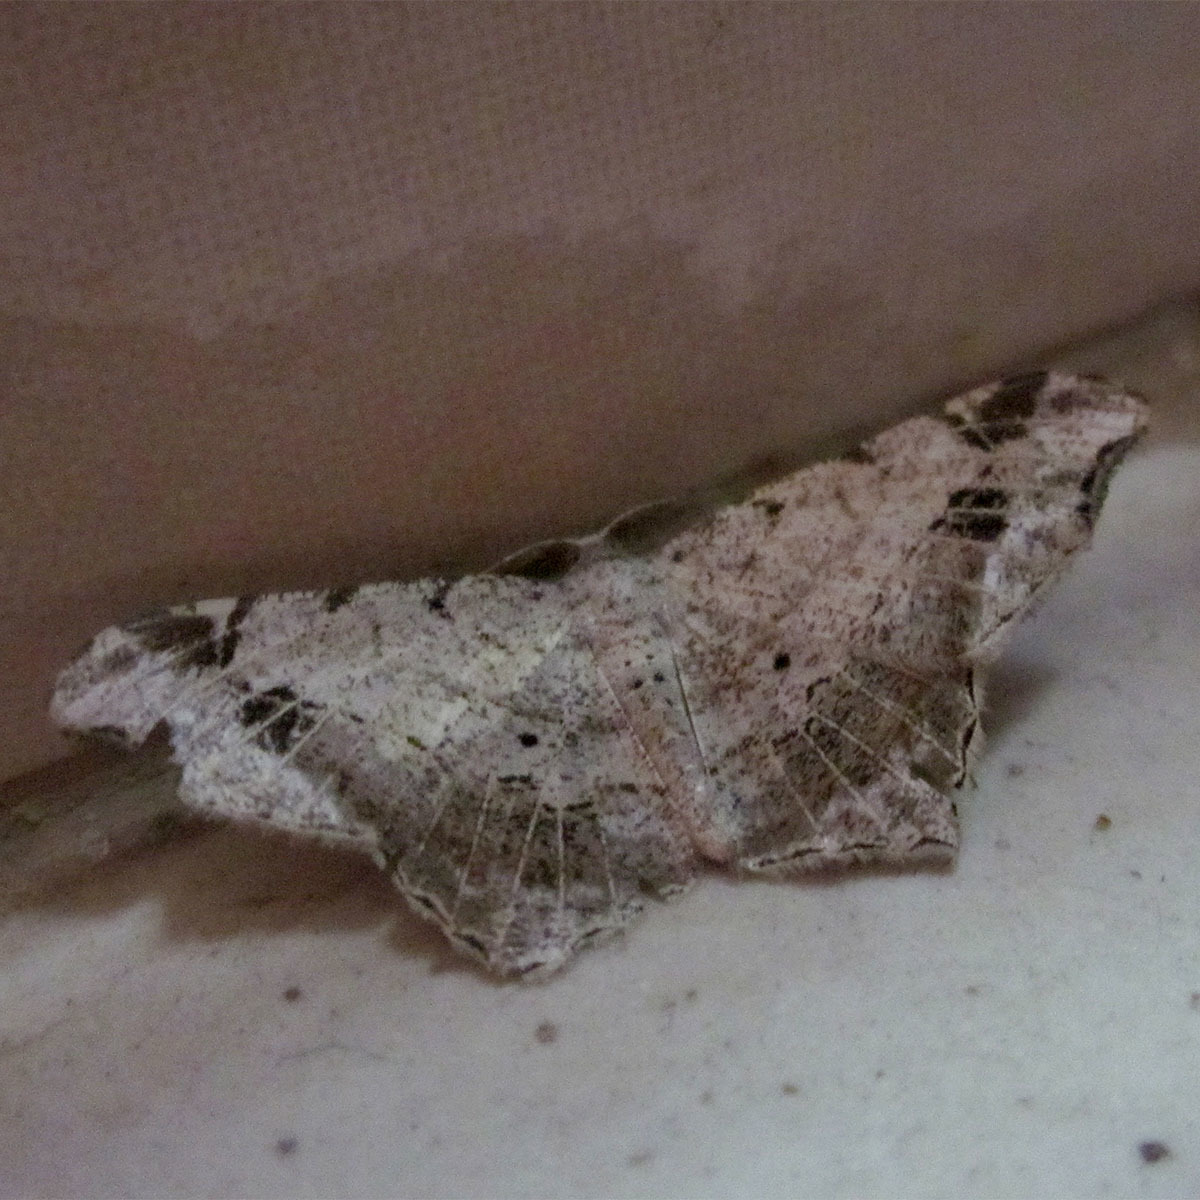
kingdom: Animalia
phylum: Arthropoda
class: Insecta
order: Lepidoptera
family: Geometridae
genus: Chiasmia
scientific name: Chiasmia emersaria
